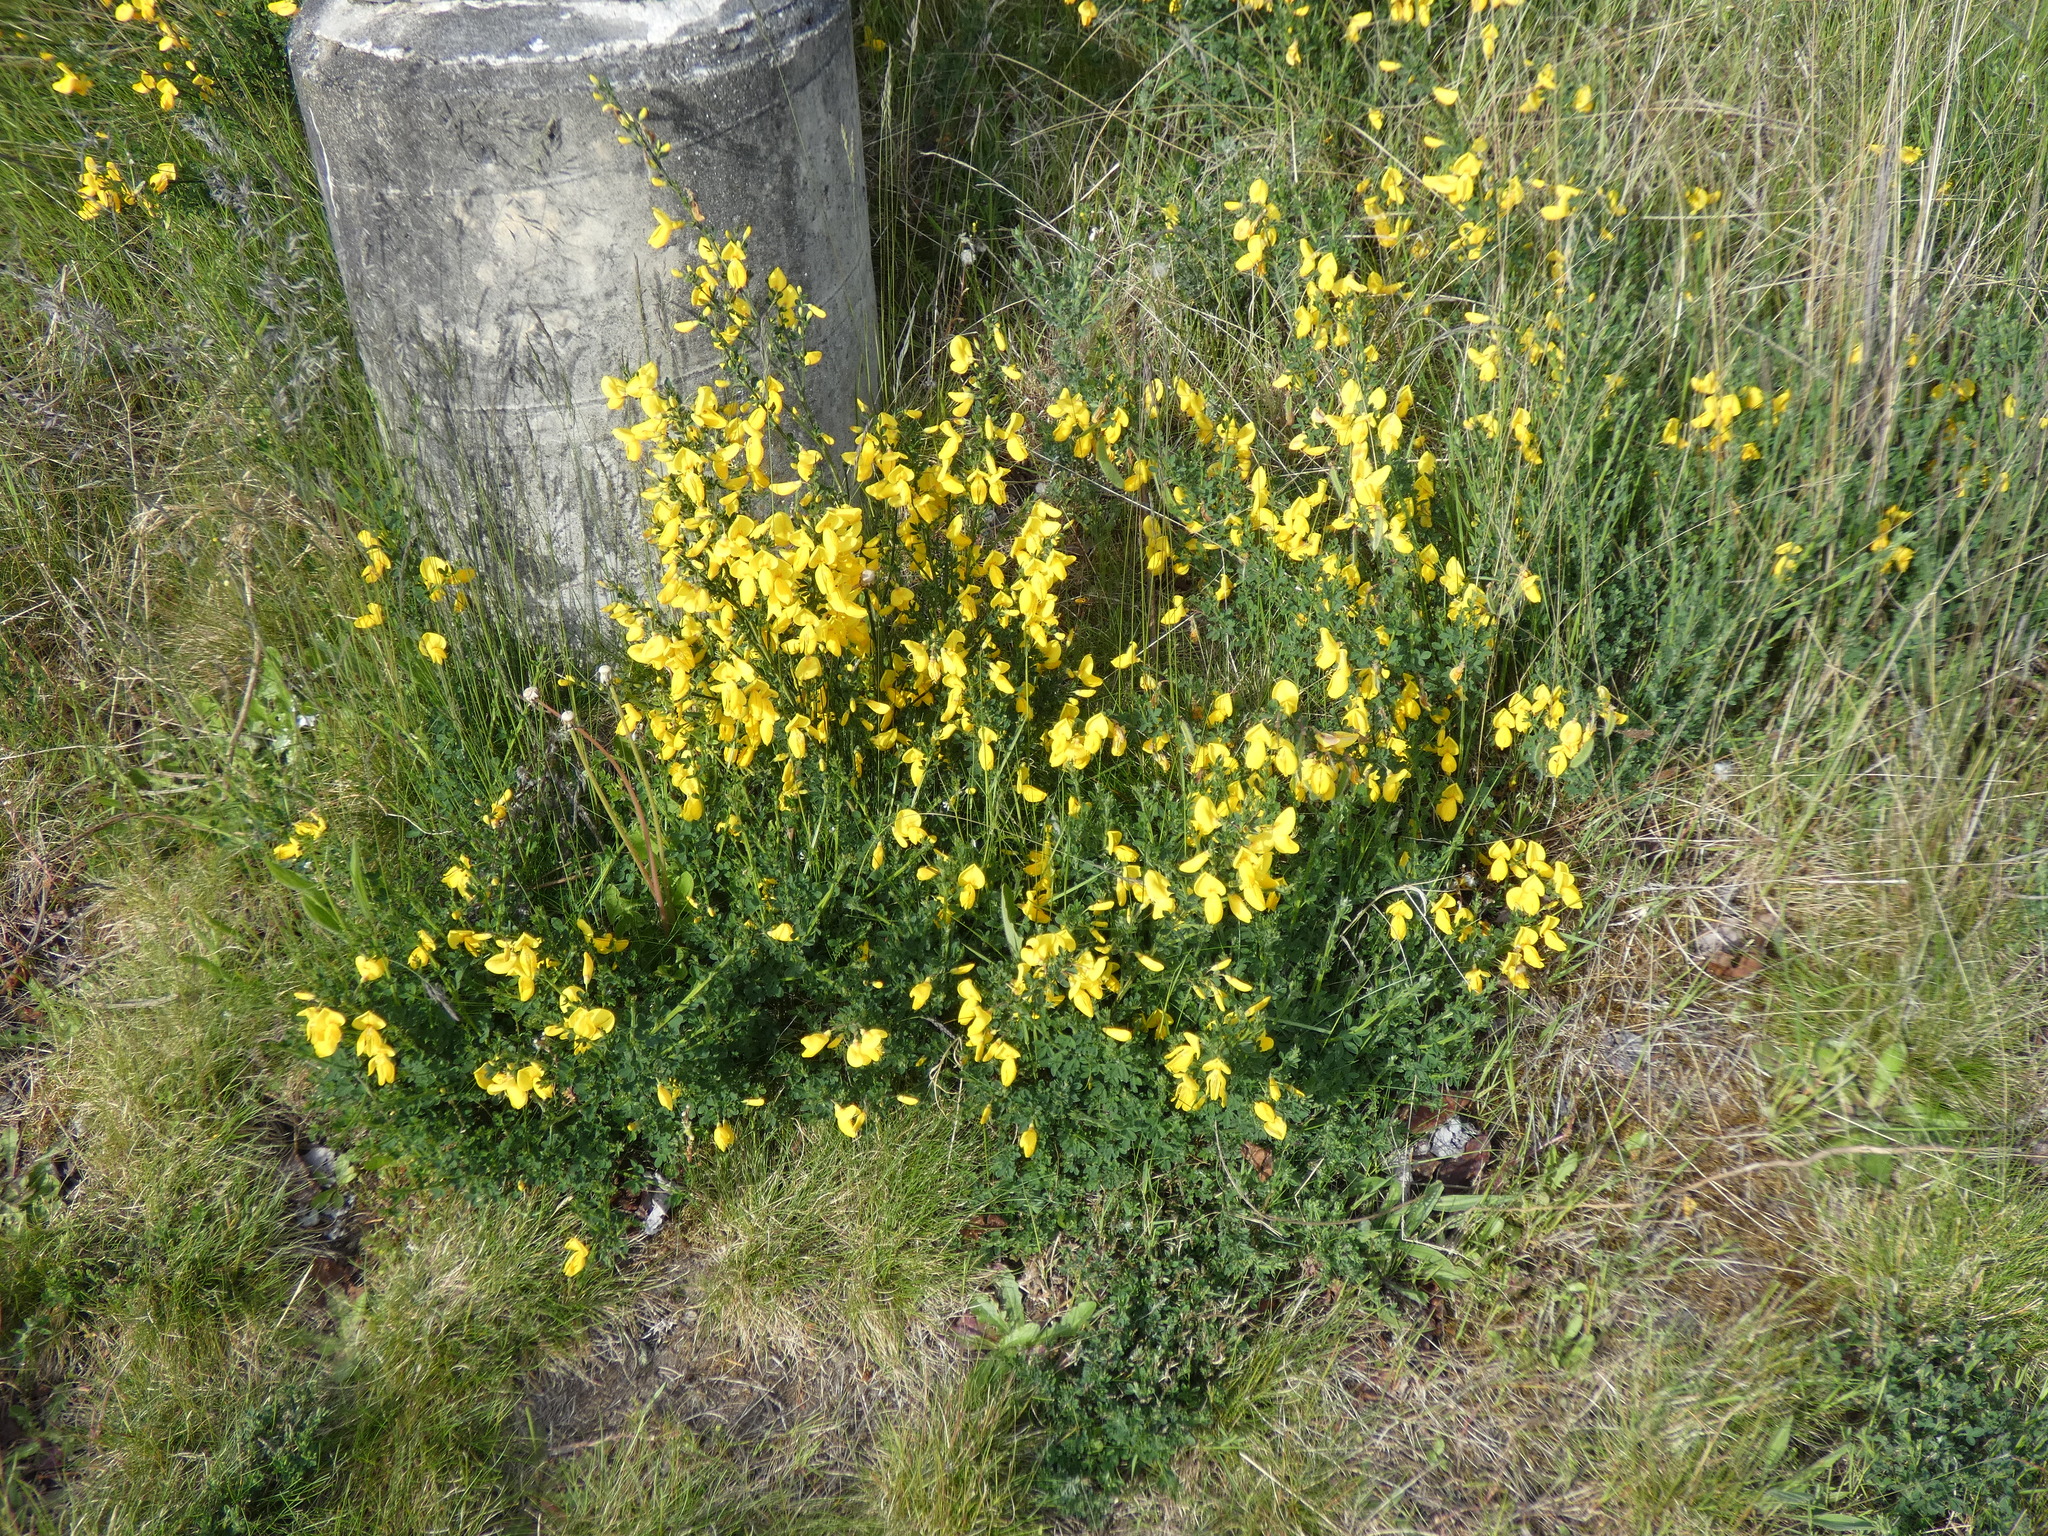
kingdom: Plantae
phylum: Tracheophyta
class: Magnoliopsida
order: Fabales
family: Fabaceae
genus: Cytisus
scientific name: Cytisus scoparius
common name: Scotch broom
